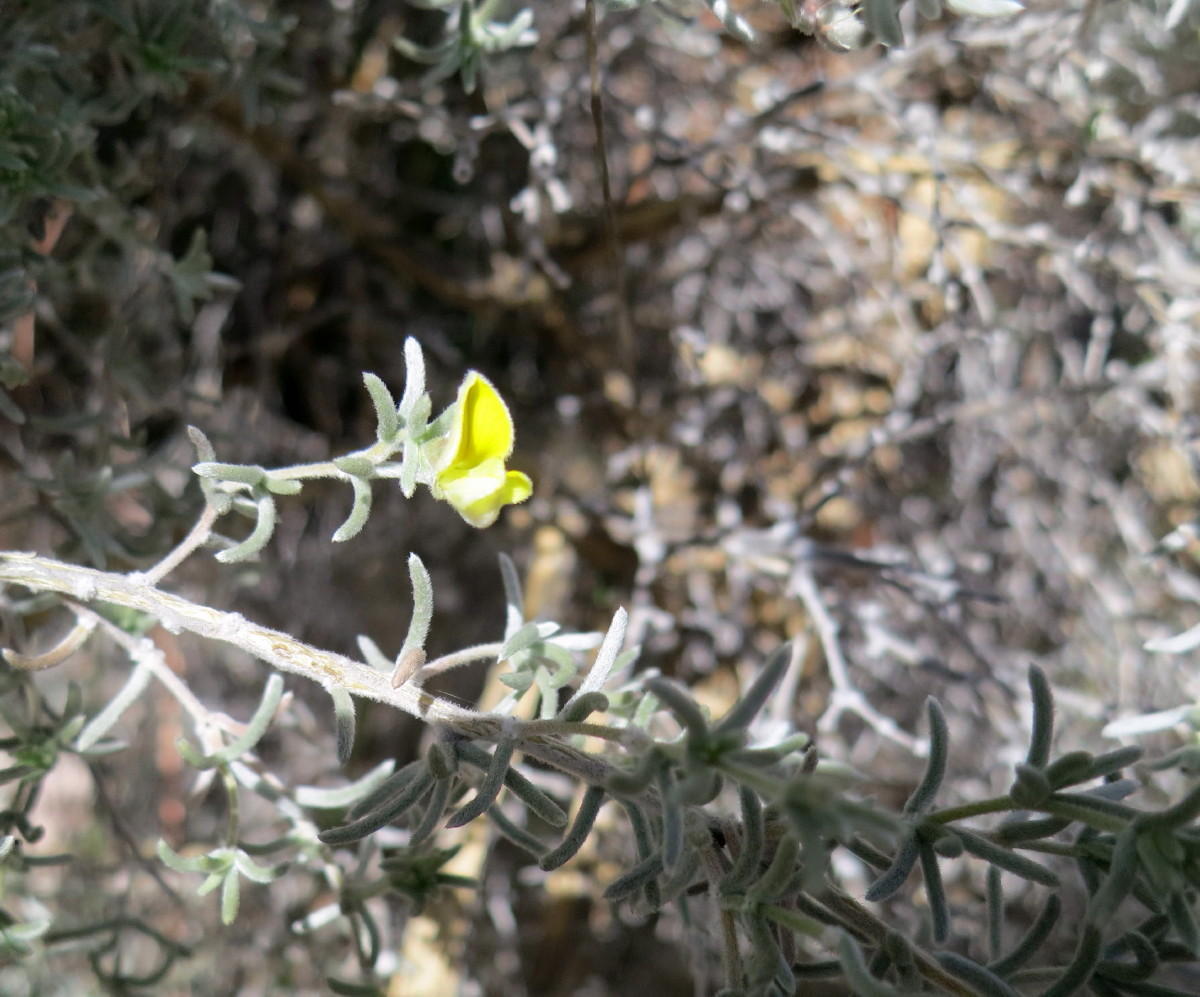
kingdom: Plantae
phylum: Tracheophyta
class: Magnoliopsida
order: Fabales
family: Fabaceae
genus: Aspalathus
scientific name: Aspalathus pedunculata
